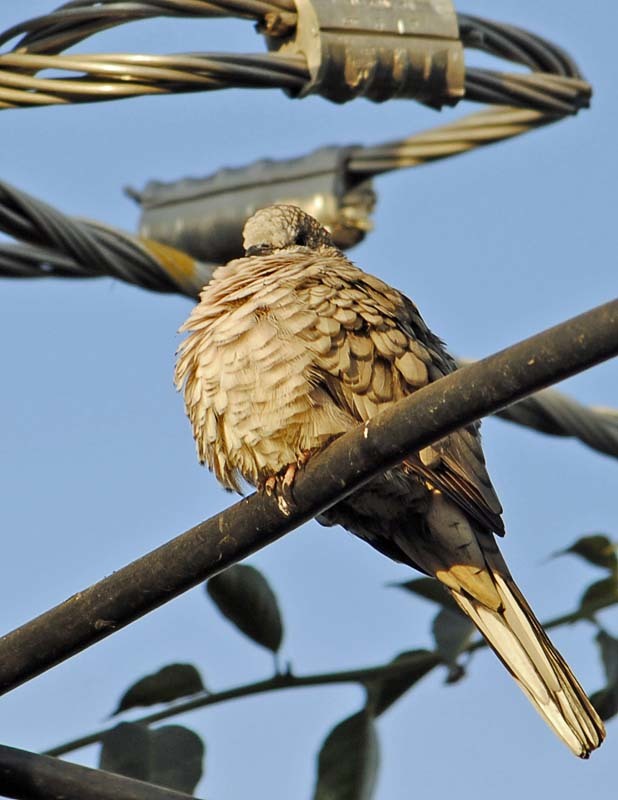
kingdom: Animalia
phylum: Chordata
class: Aves
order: Columbiformes
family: Columbidae
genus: Columbina
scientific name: Columbina inca
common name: Inca dove
